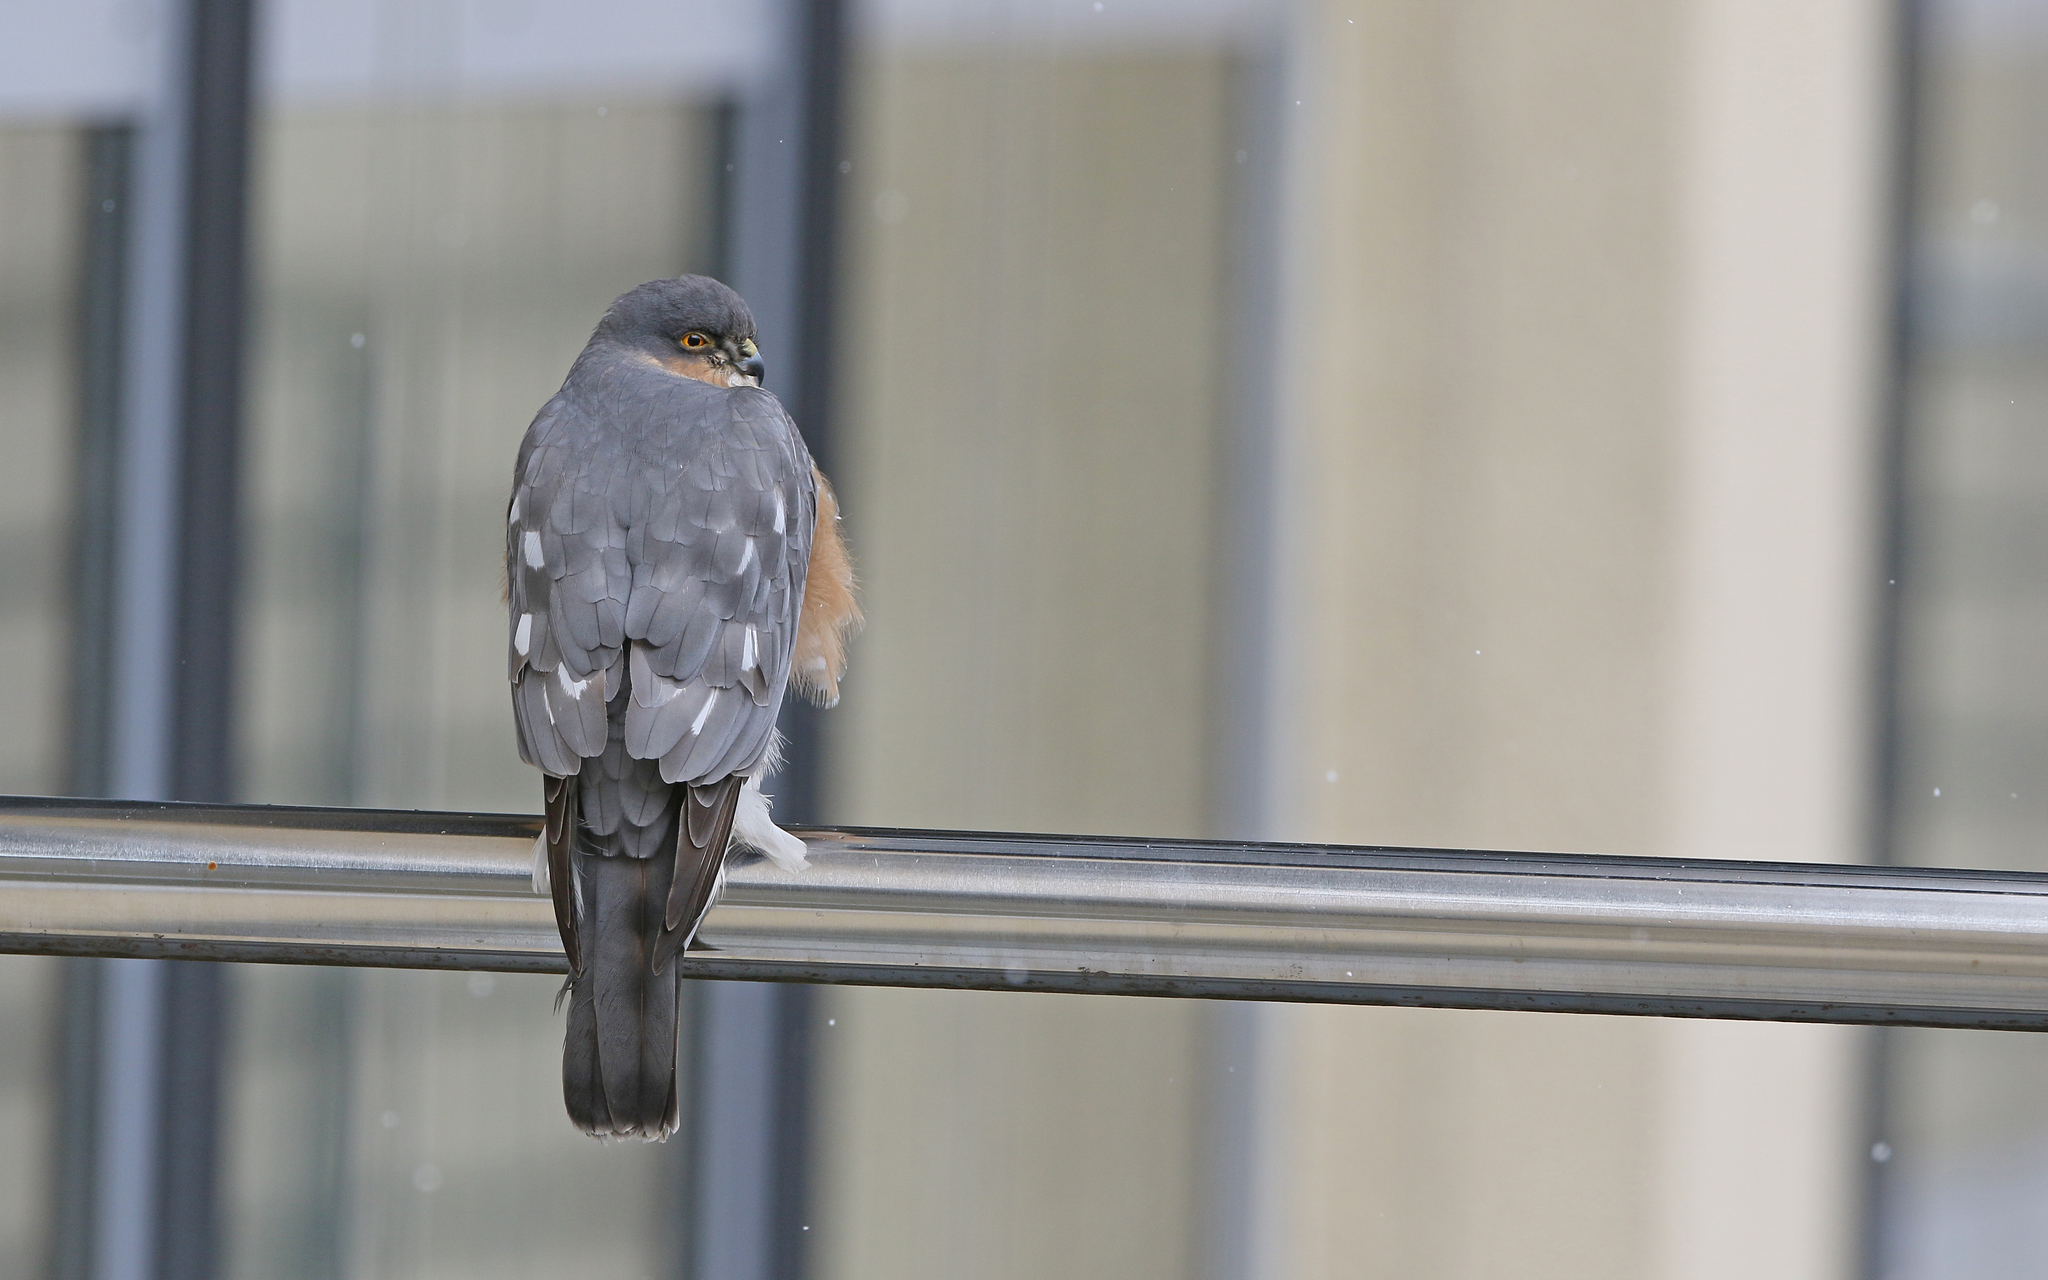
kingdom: Animalia
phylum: Chordata
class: Aves
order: Accipitriformes
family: Accipitridae
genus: Accipiter
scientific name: Accipiter nisus
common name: Eurasian sparrowhawk
